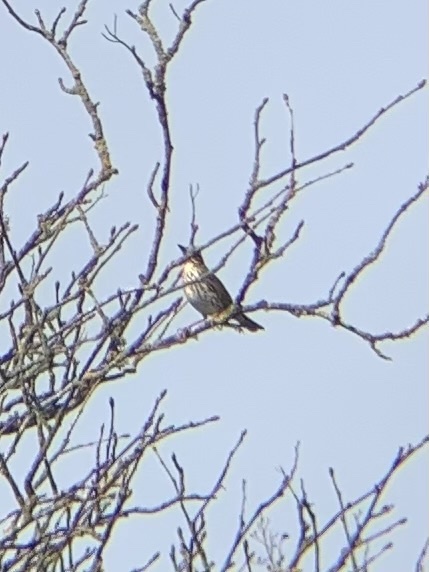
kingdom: Animalia
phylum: Chordata
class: Aves
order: Passeriformes
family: Turdidae
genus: Turdus
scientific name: Turdus iliacus
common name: Redwing
